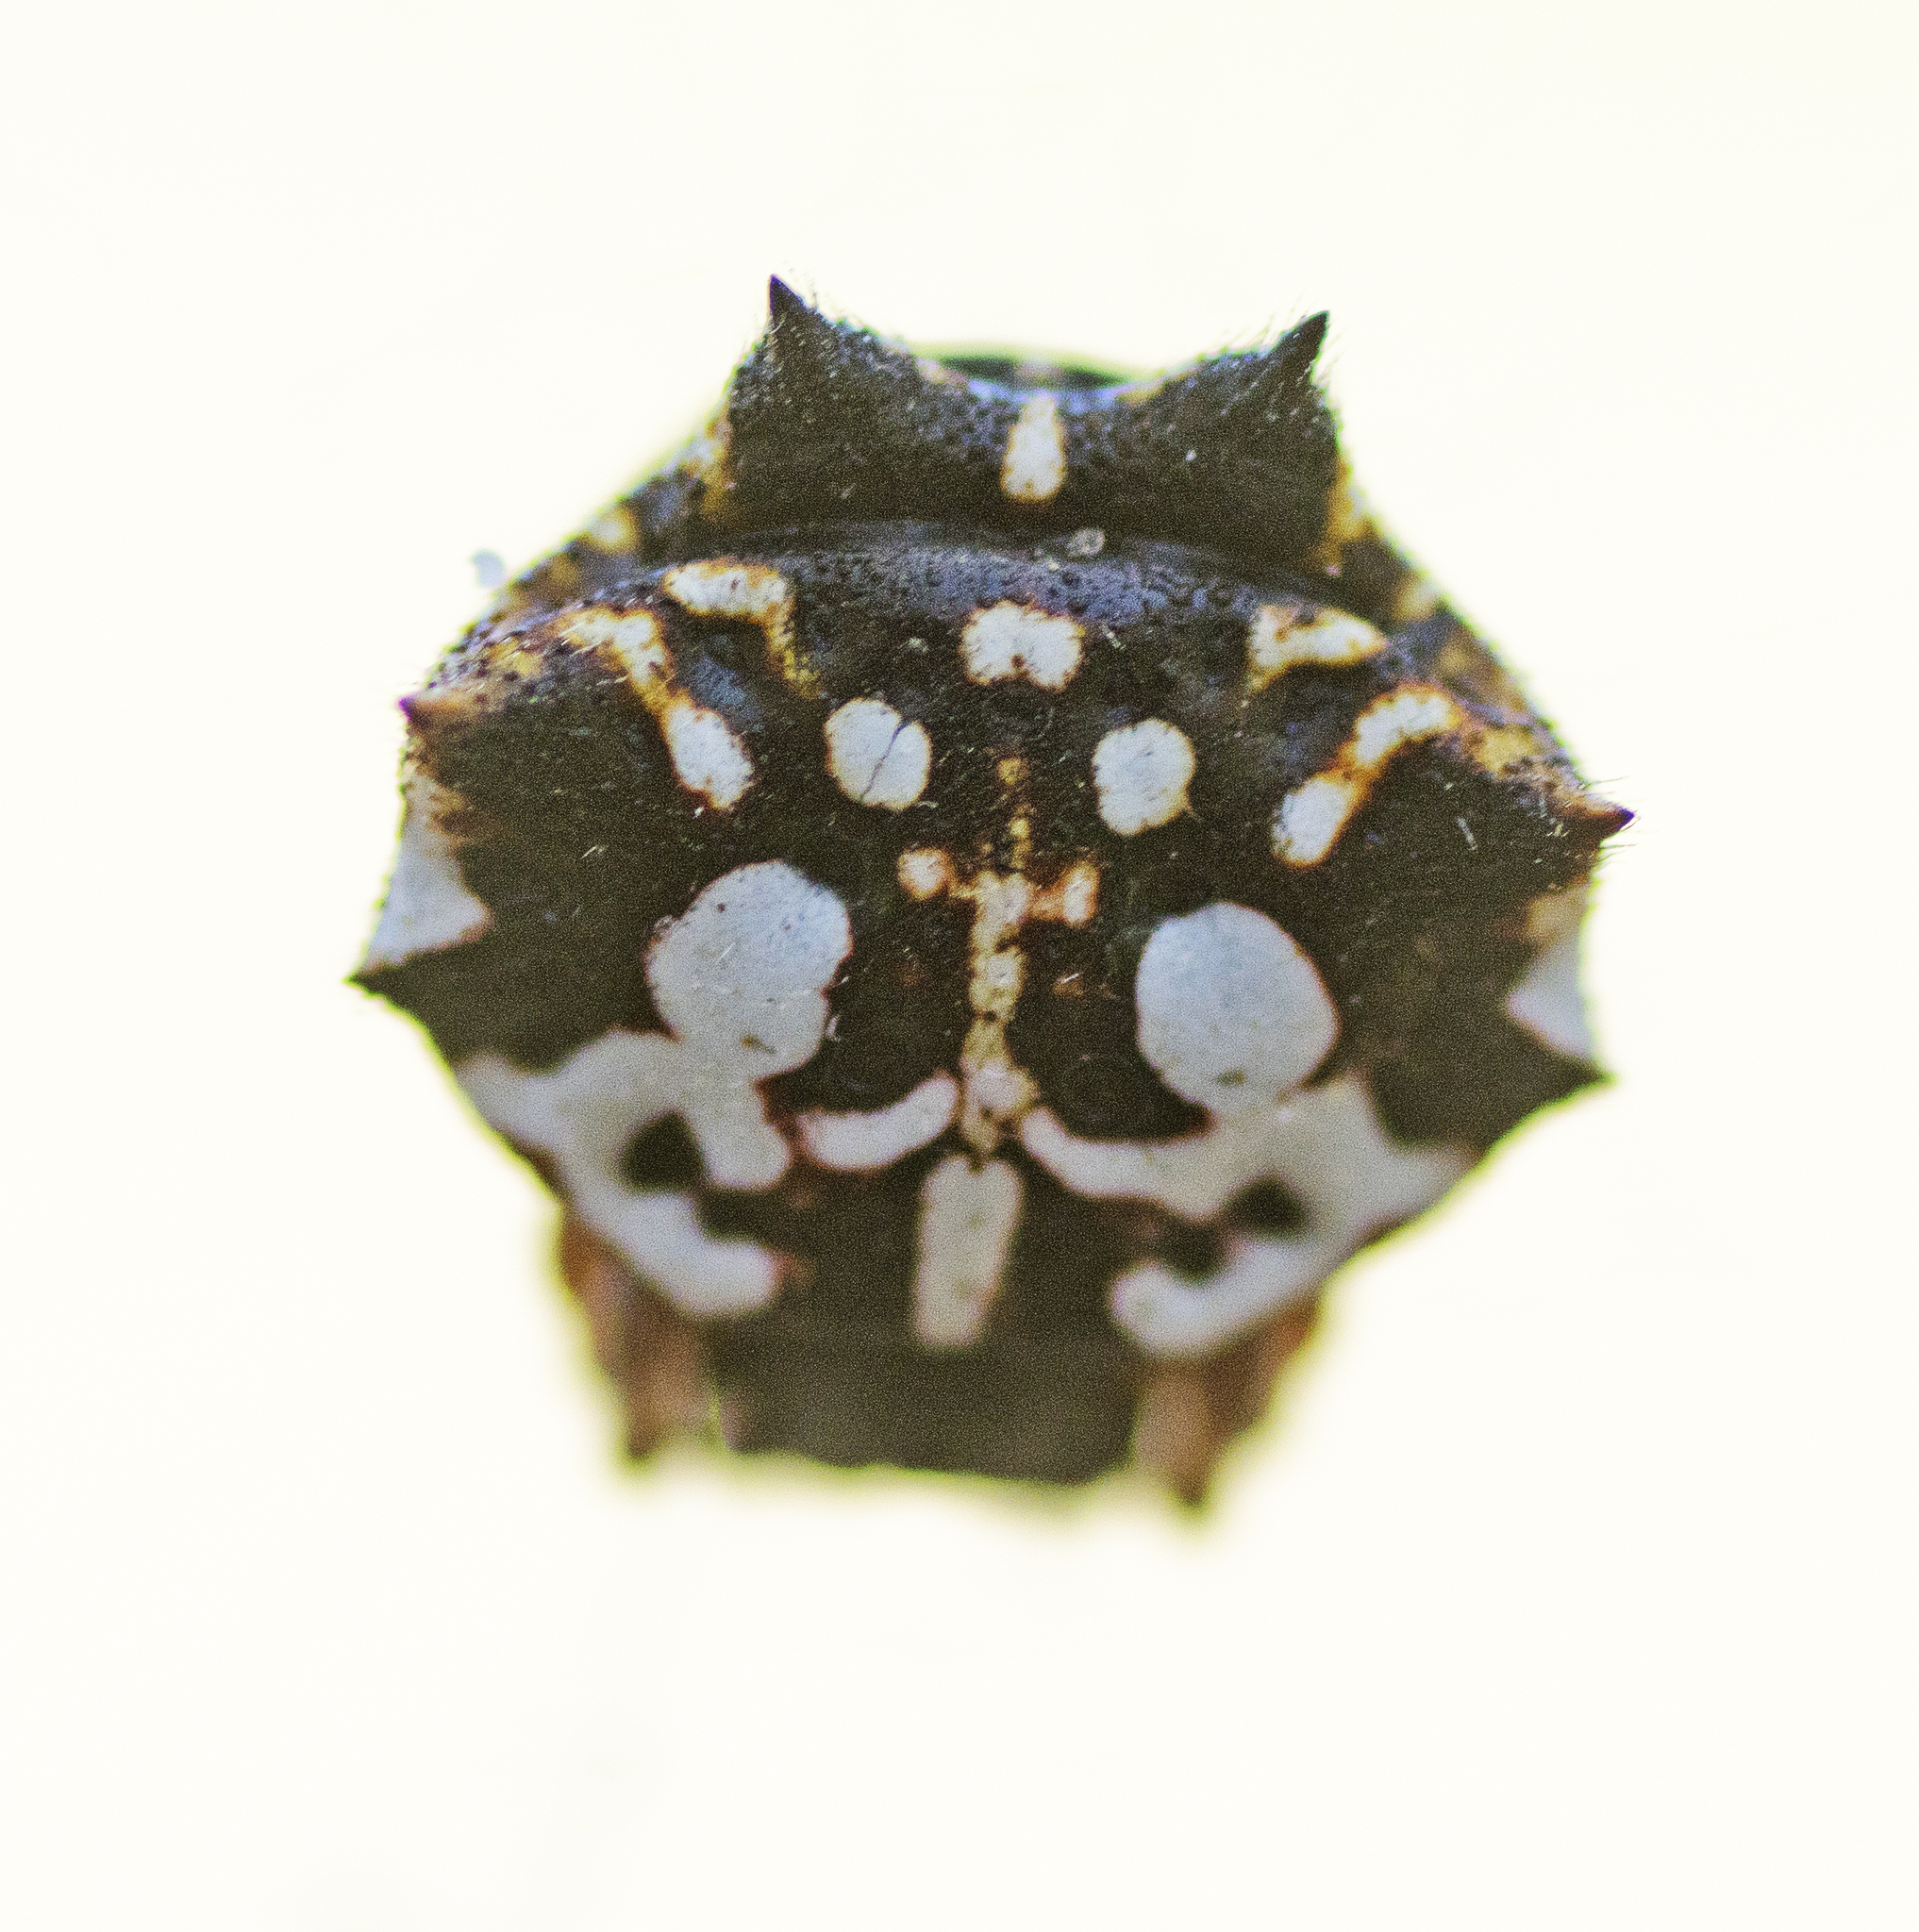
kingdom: Animalia
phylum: Arthropoda
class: Arachnida
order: Araneae
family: Araneidae
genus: Gasteracantha
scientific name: Gasteracantha sacerdotalis
